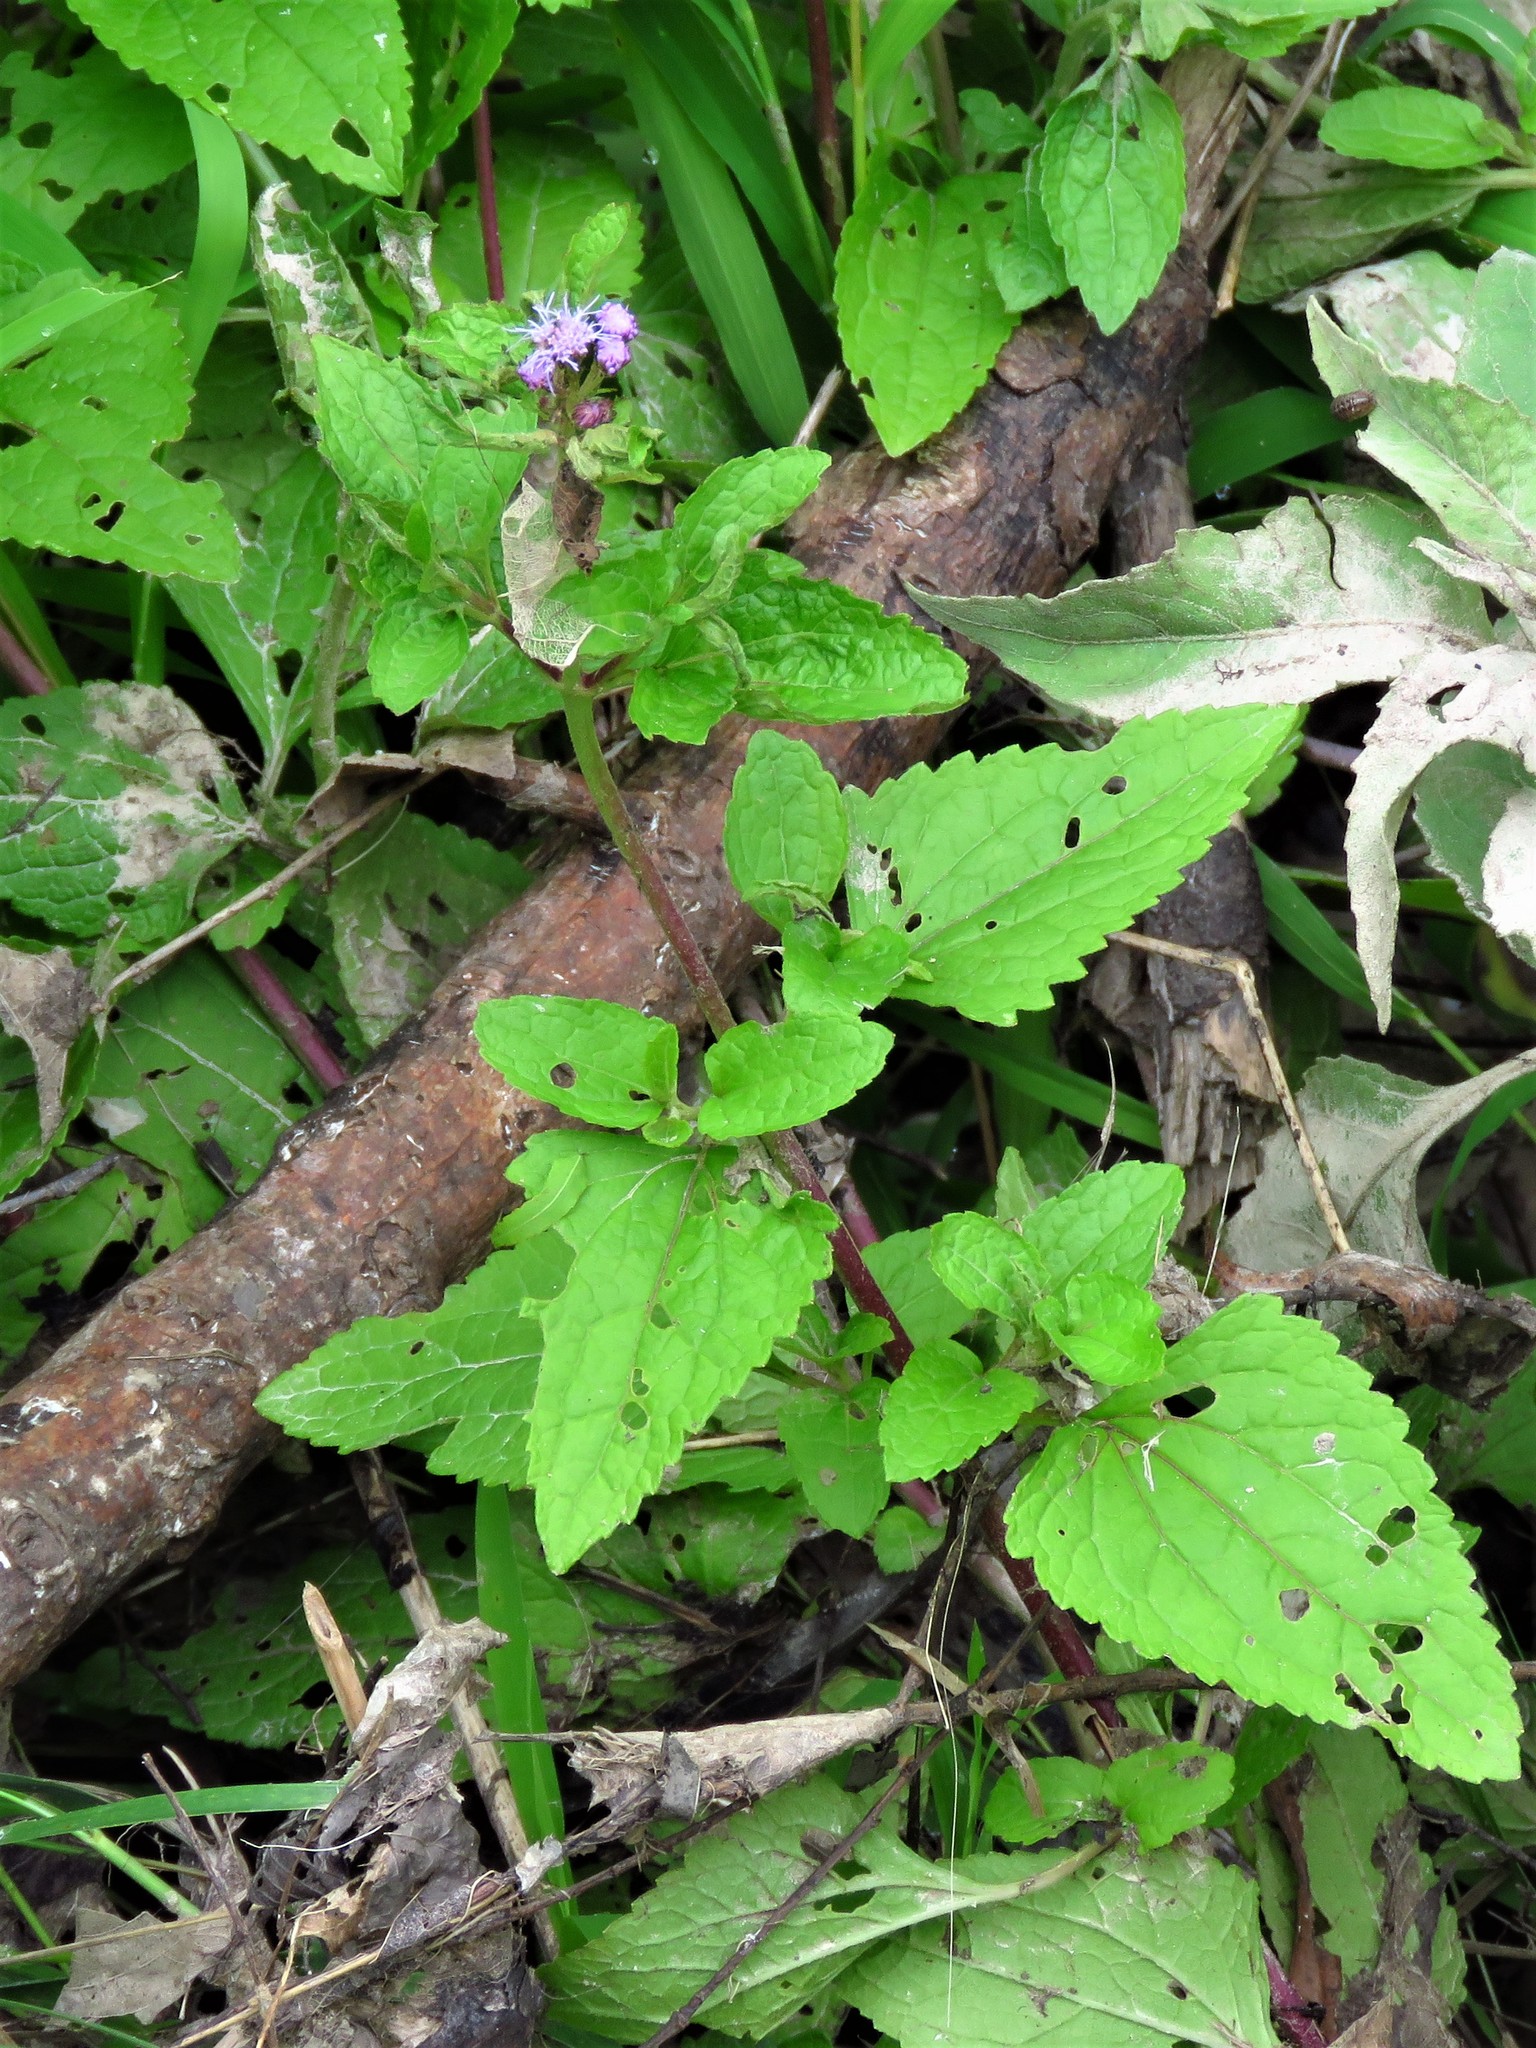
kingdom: Plantae
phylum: Tracheophyta
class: Magnoliopsida
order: Asterales
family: Asteraceae
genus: Conoclinium
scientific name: Conoclinium coelestinum
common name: Blue mistflower
